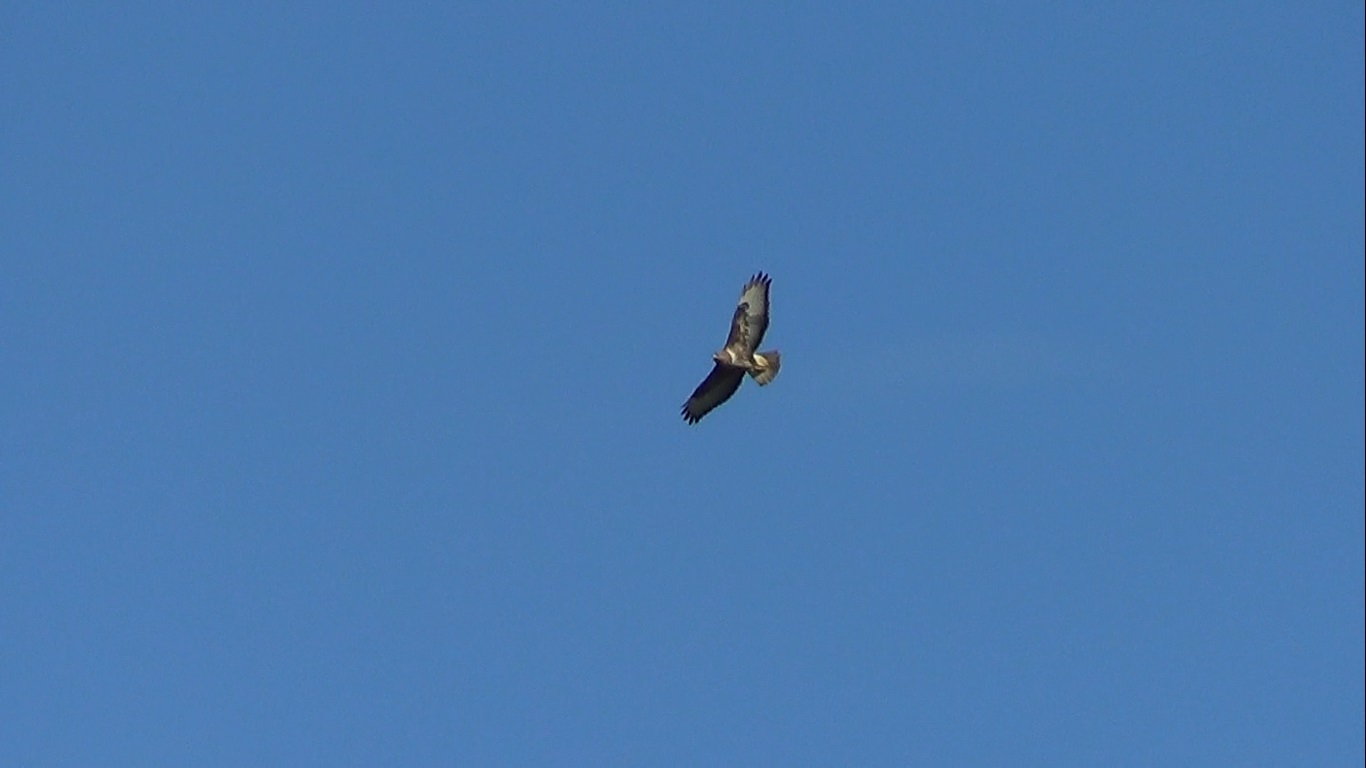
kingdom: Animalia
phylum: Chordata
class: Aves
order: Accipitriformes
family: Accipitridae
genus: Buteo
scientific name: Buteo buteo
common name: Common buzzard
